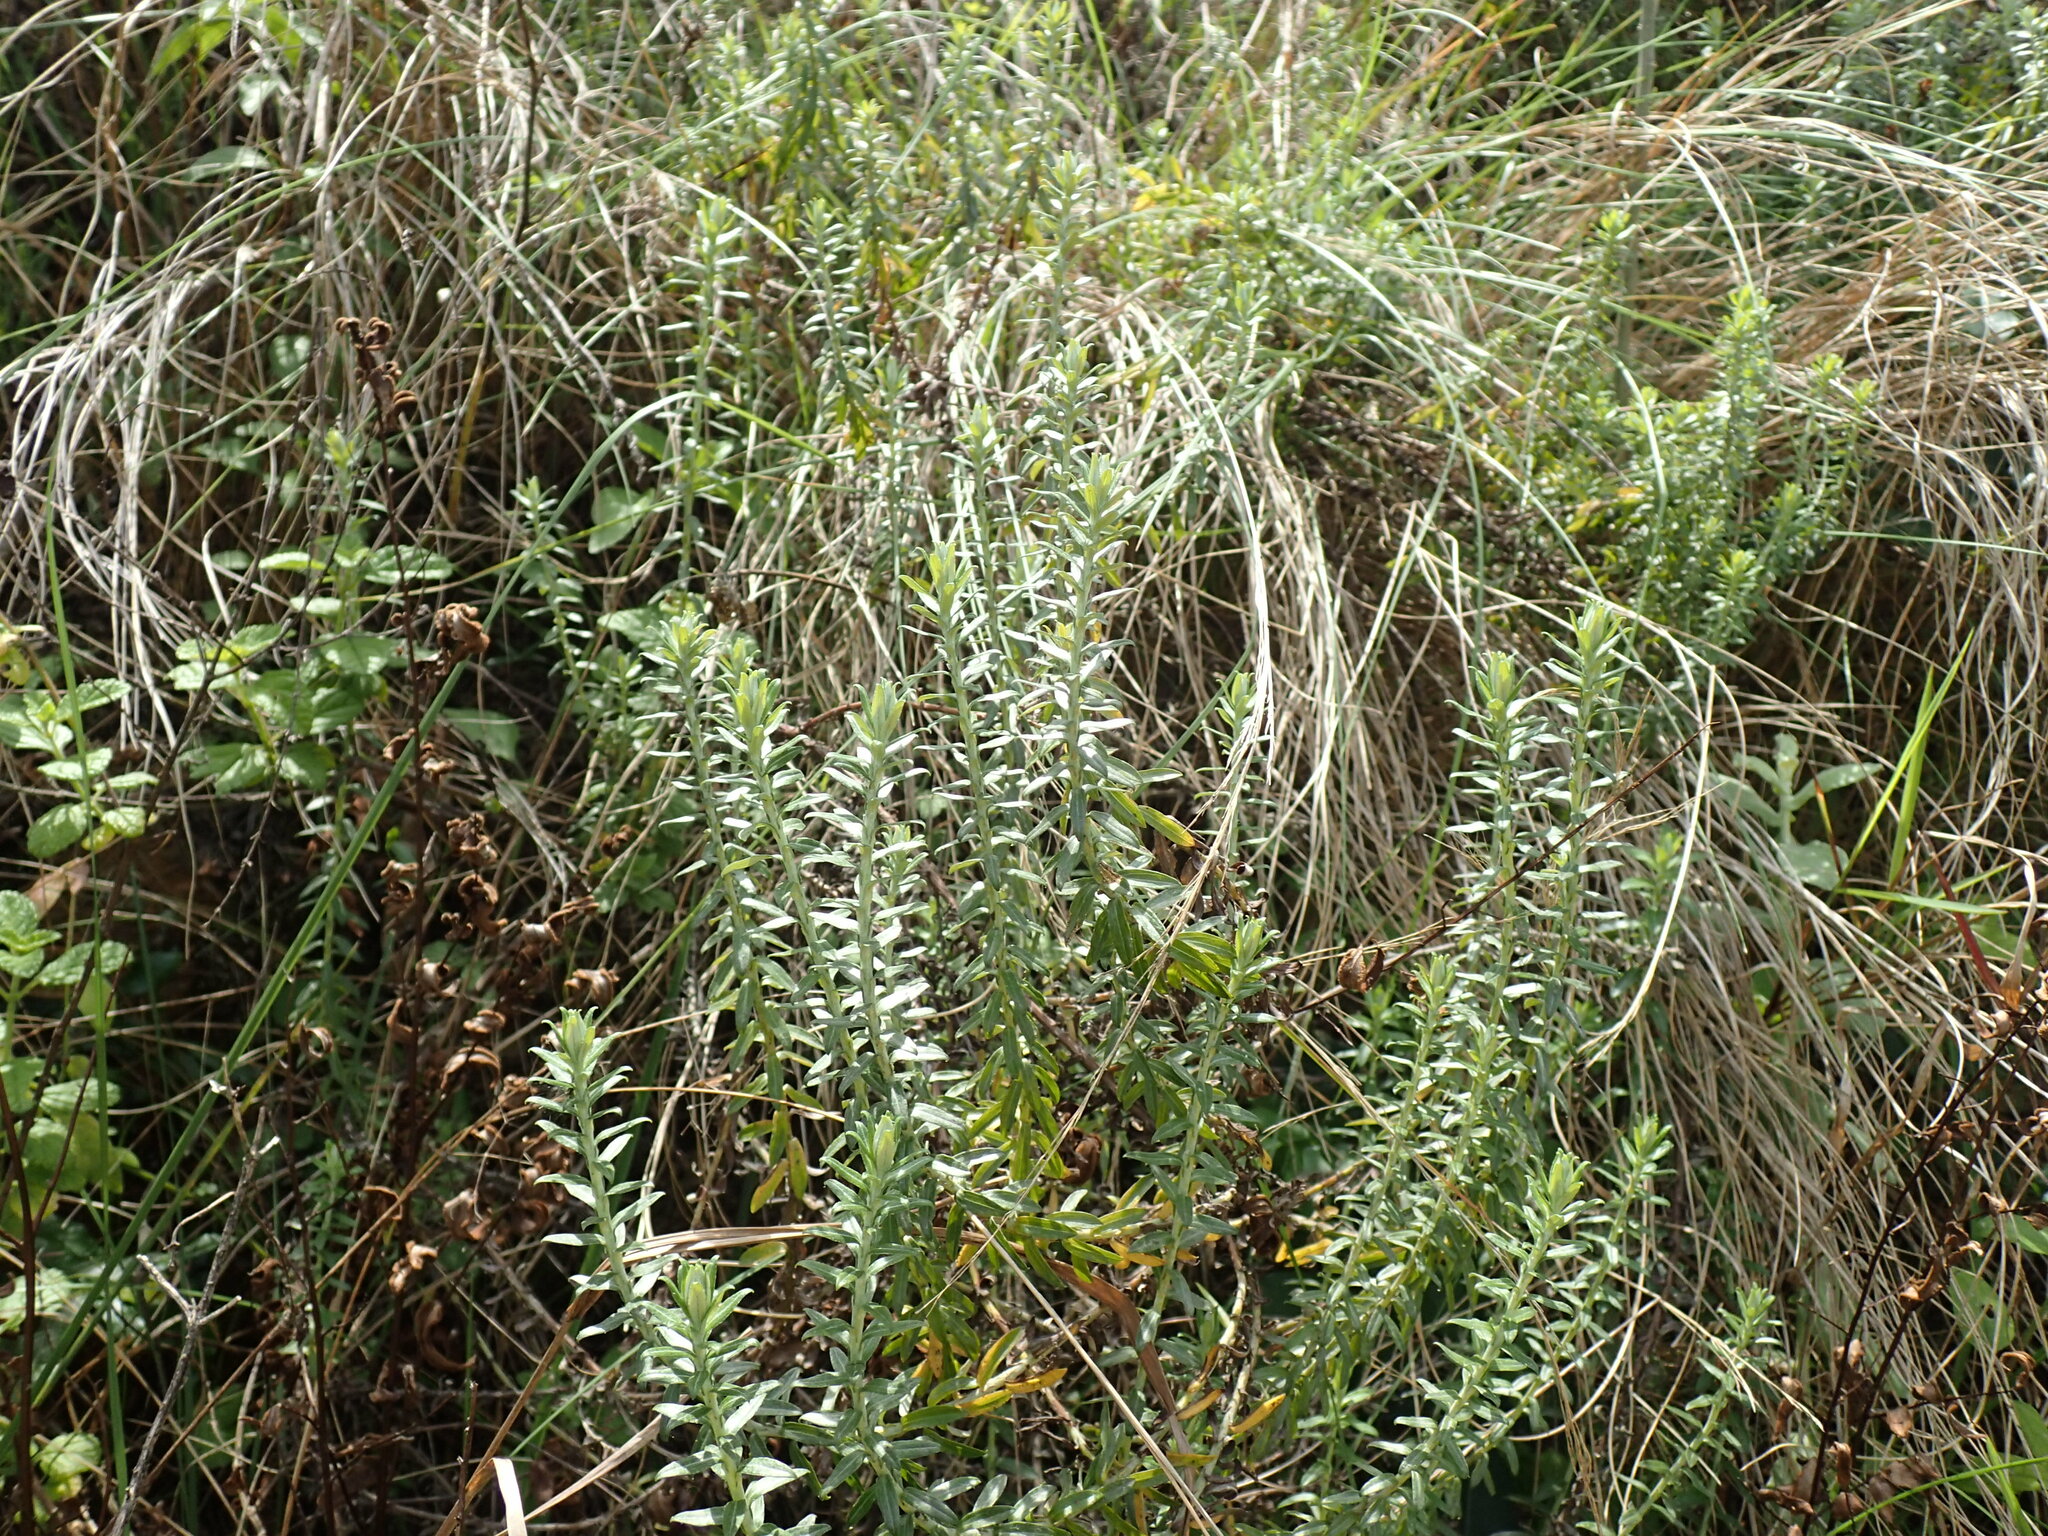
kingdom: Plantae
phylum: Tracheophyta
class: Magnoliopsida
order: Asterales
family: Asteraceae
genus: Helichrysum
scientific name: Helichrysum kraussii
